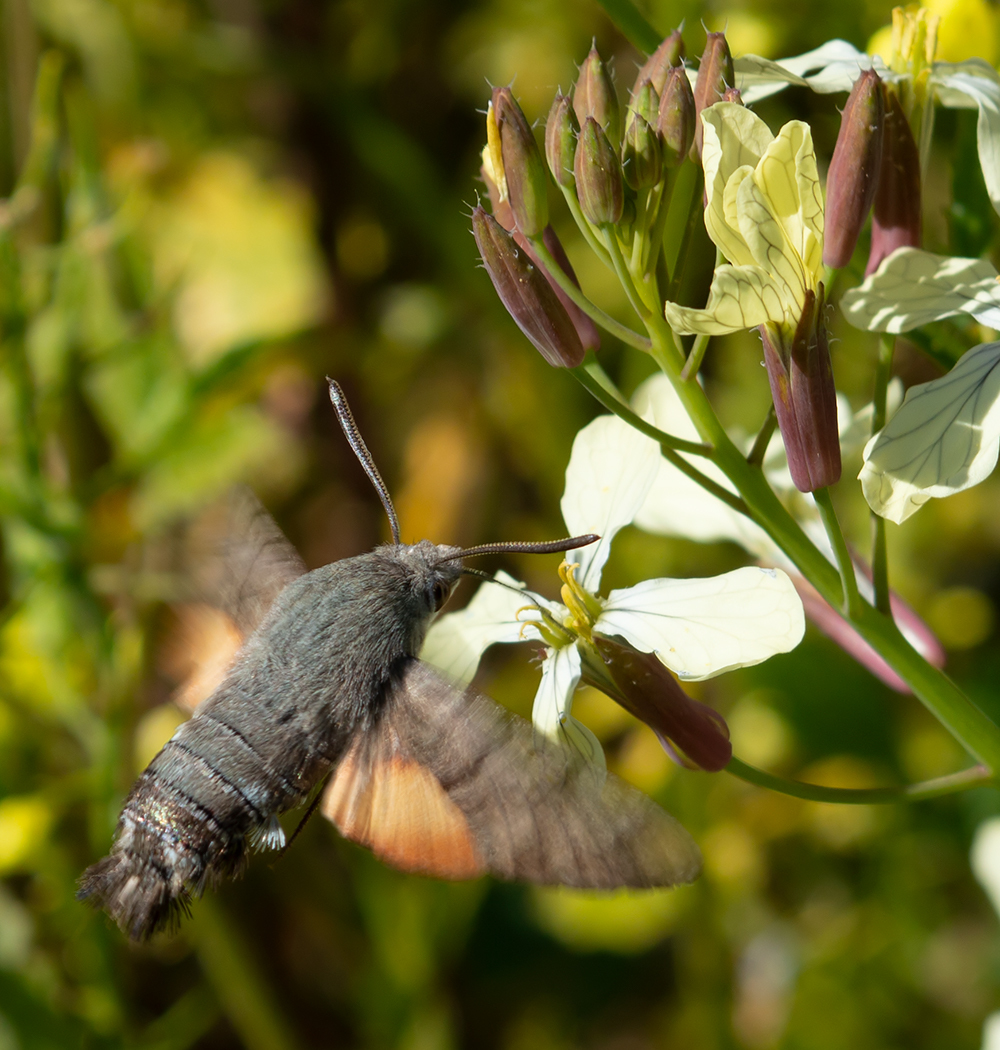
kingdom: Animalia
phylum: Arthropoda
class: Insecta
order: Lepidoptera
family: Sphingidae
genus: Macroglossum
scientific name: Macroglossum stellatarum
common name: Humming-bird hawk-moth
